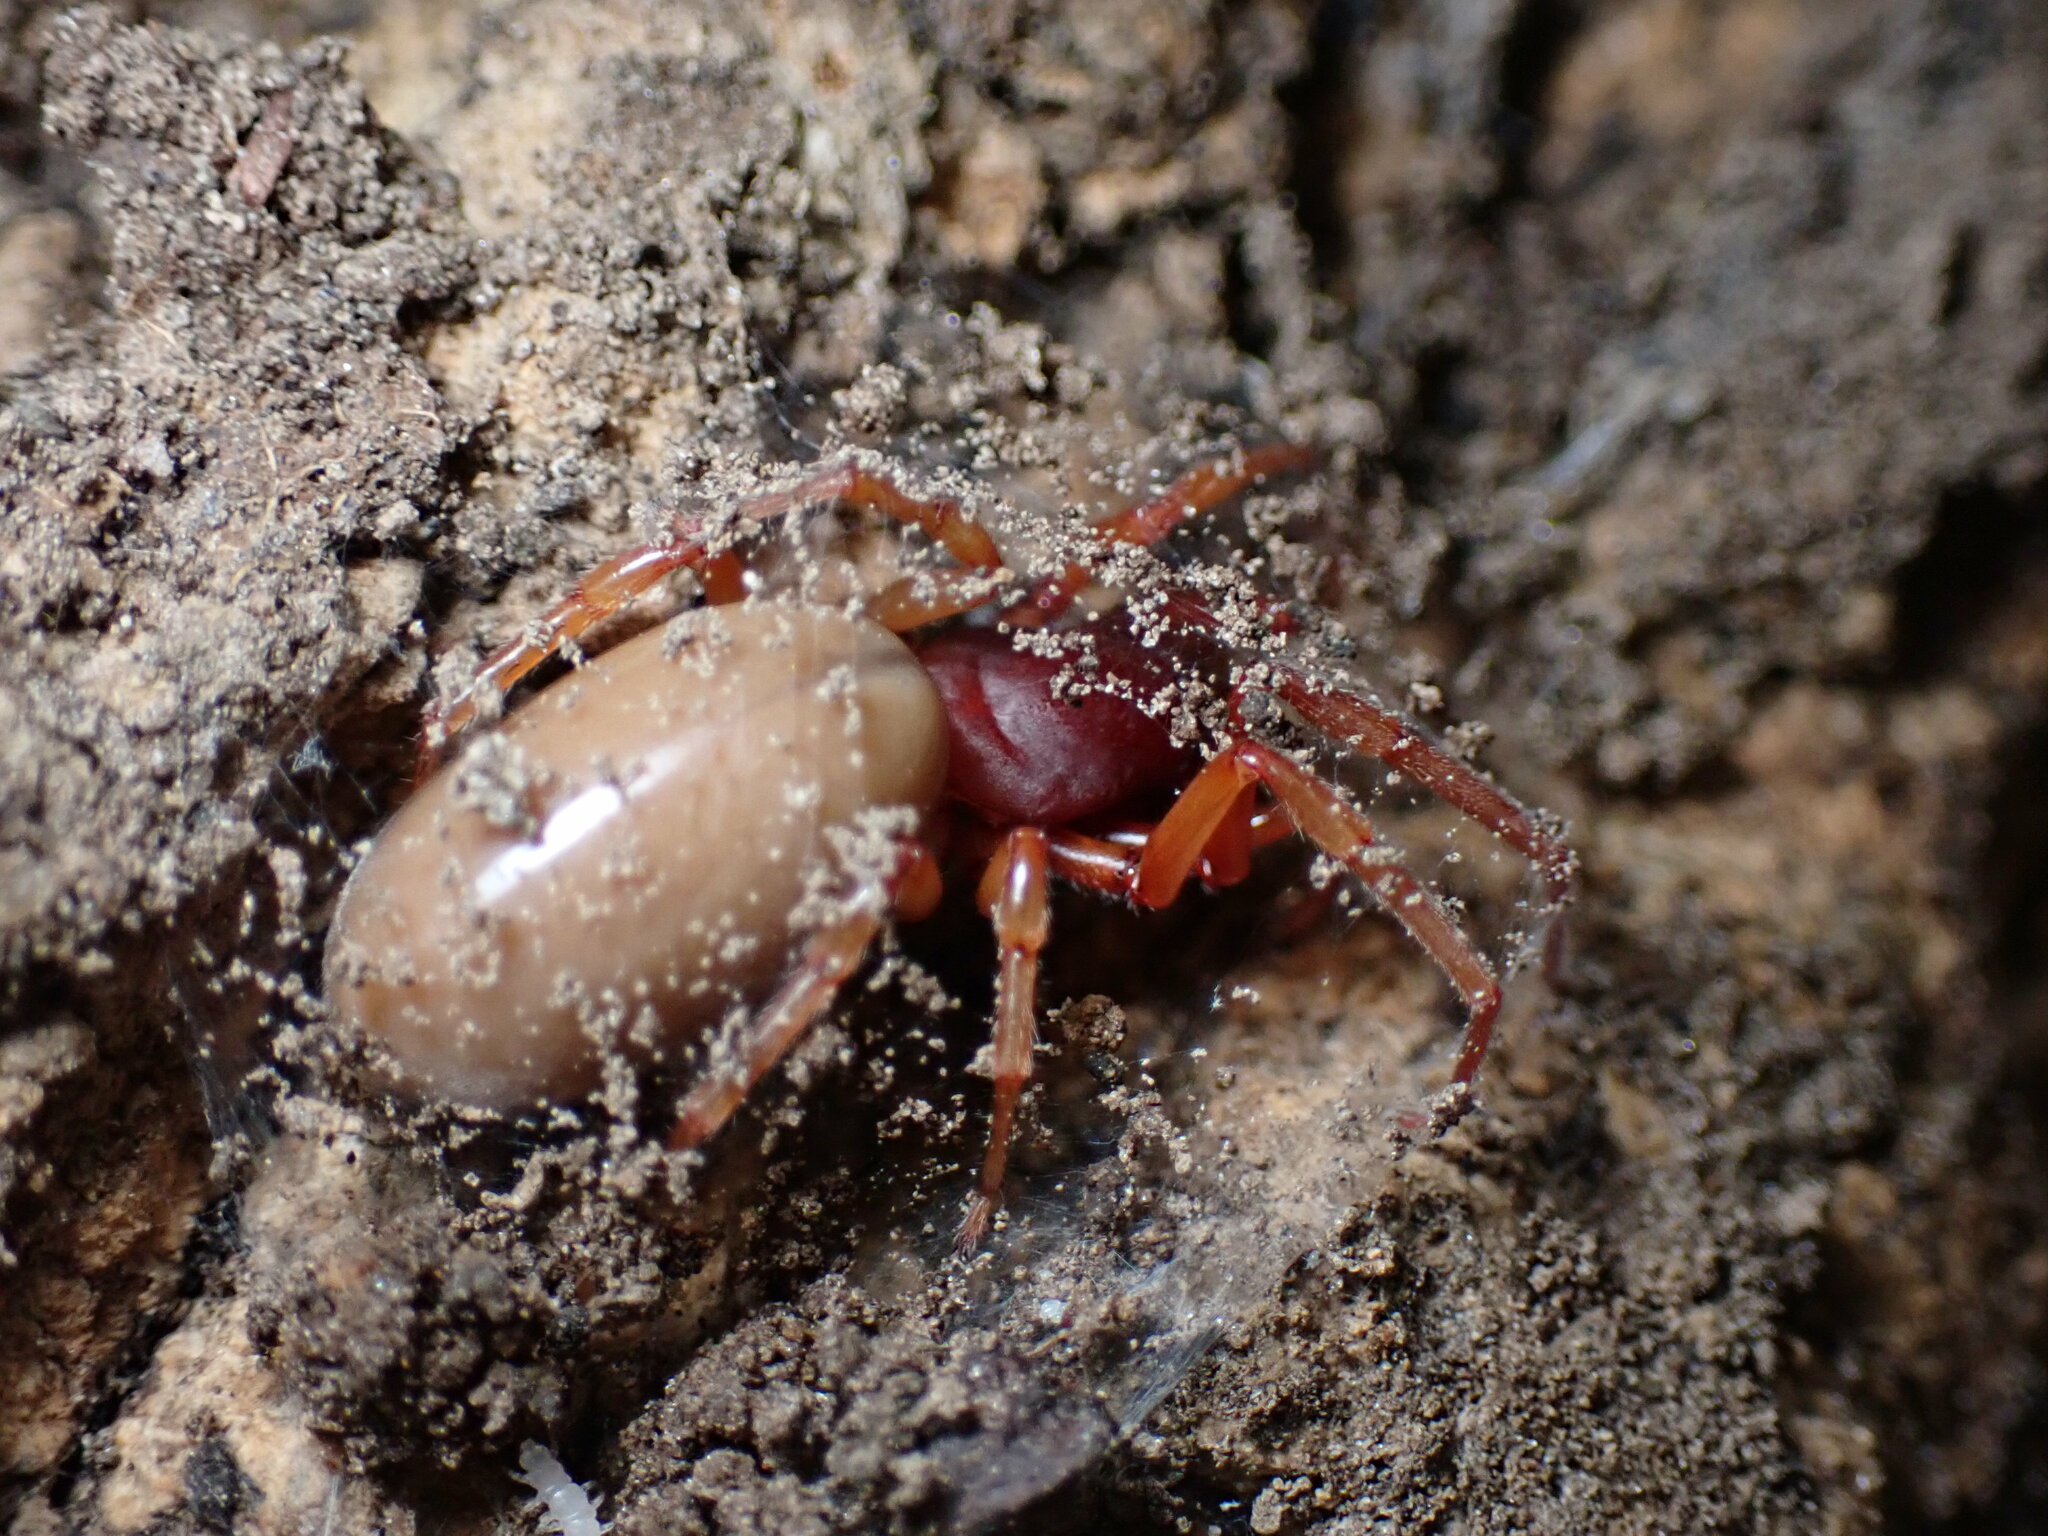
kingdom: Animalia
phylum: Arthropoda
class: Arachnida
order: Araneae
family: Dysderidae
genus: Dysdera
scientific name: Dysdera crocata
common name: Woodlouse spider
